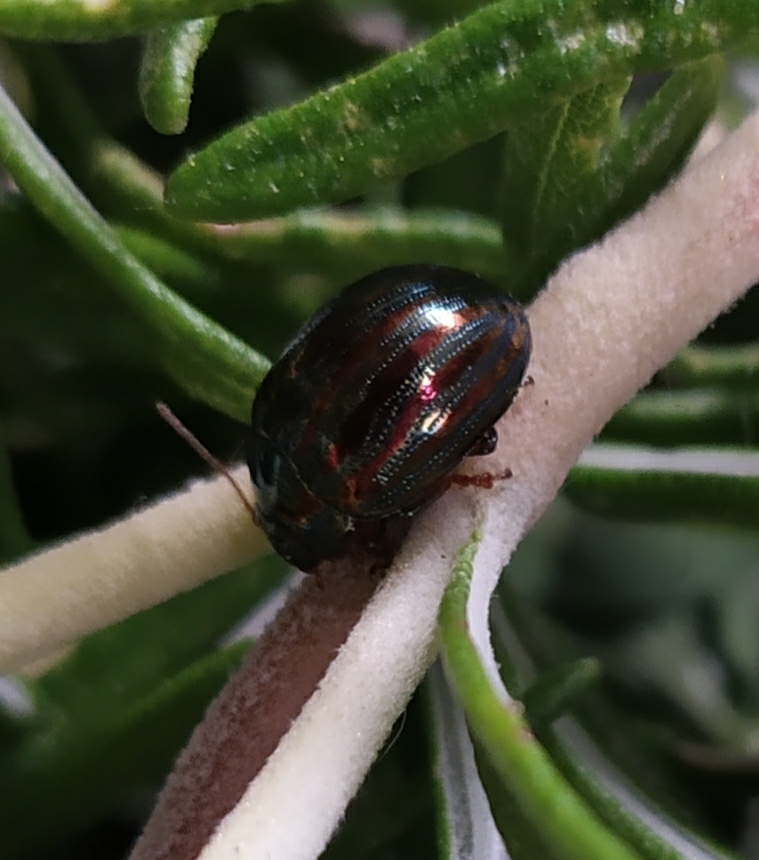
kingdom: Animalia
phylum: Arthropoda
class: Insecta
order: Coleoptera
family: Chrysomelidae
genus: Chrysolina
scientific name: Chrysolina americana
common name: Rosemary beetle
